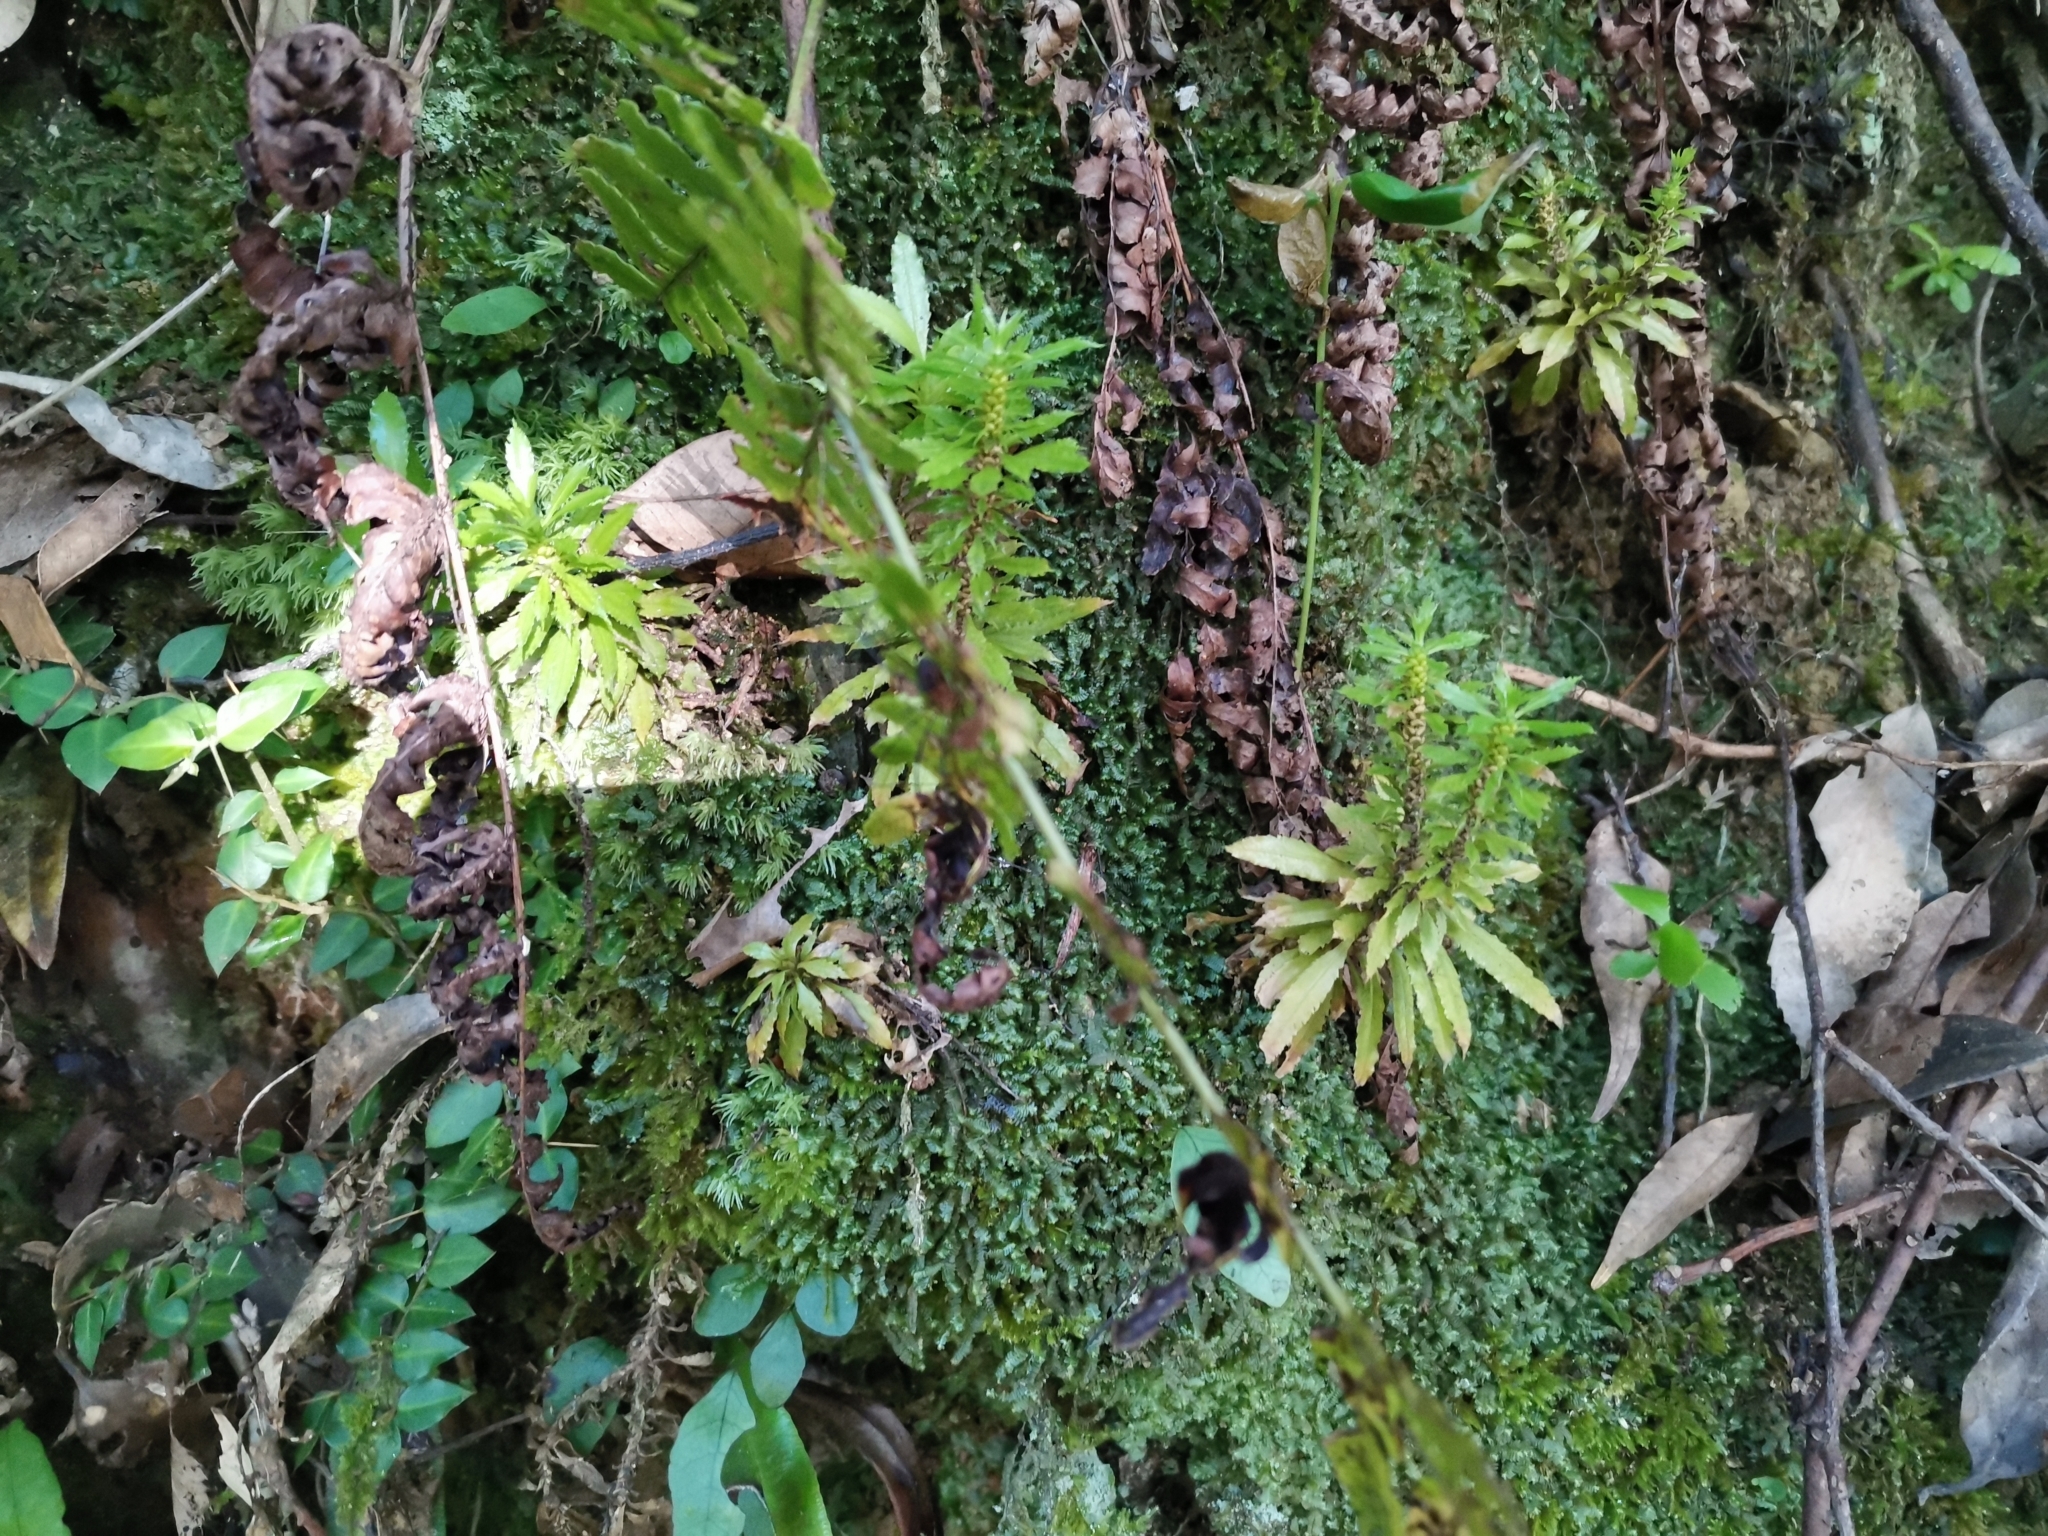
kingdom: Plantae
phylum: Tracheophyta
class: Lycopodiopsida
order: Lycopodiales
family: Lycopodiaceae
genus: Huperzia
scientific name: Huperzia serrata
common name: Toothed club-moss
